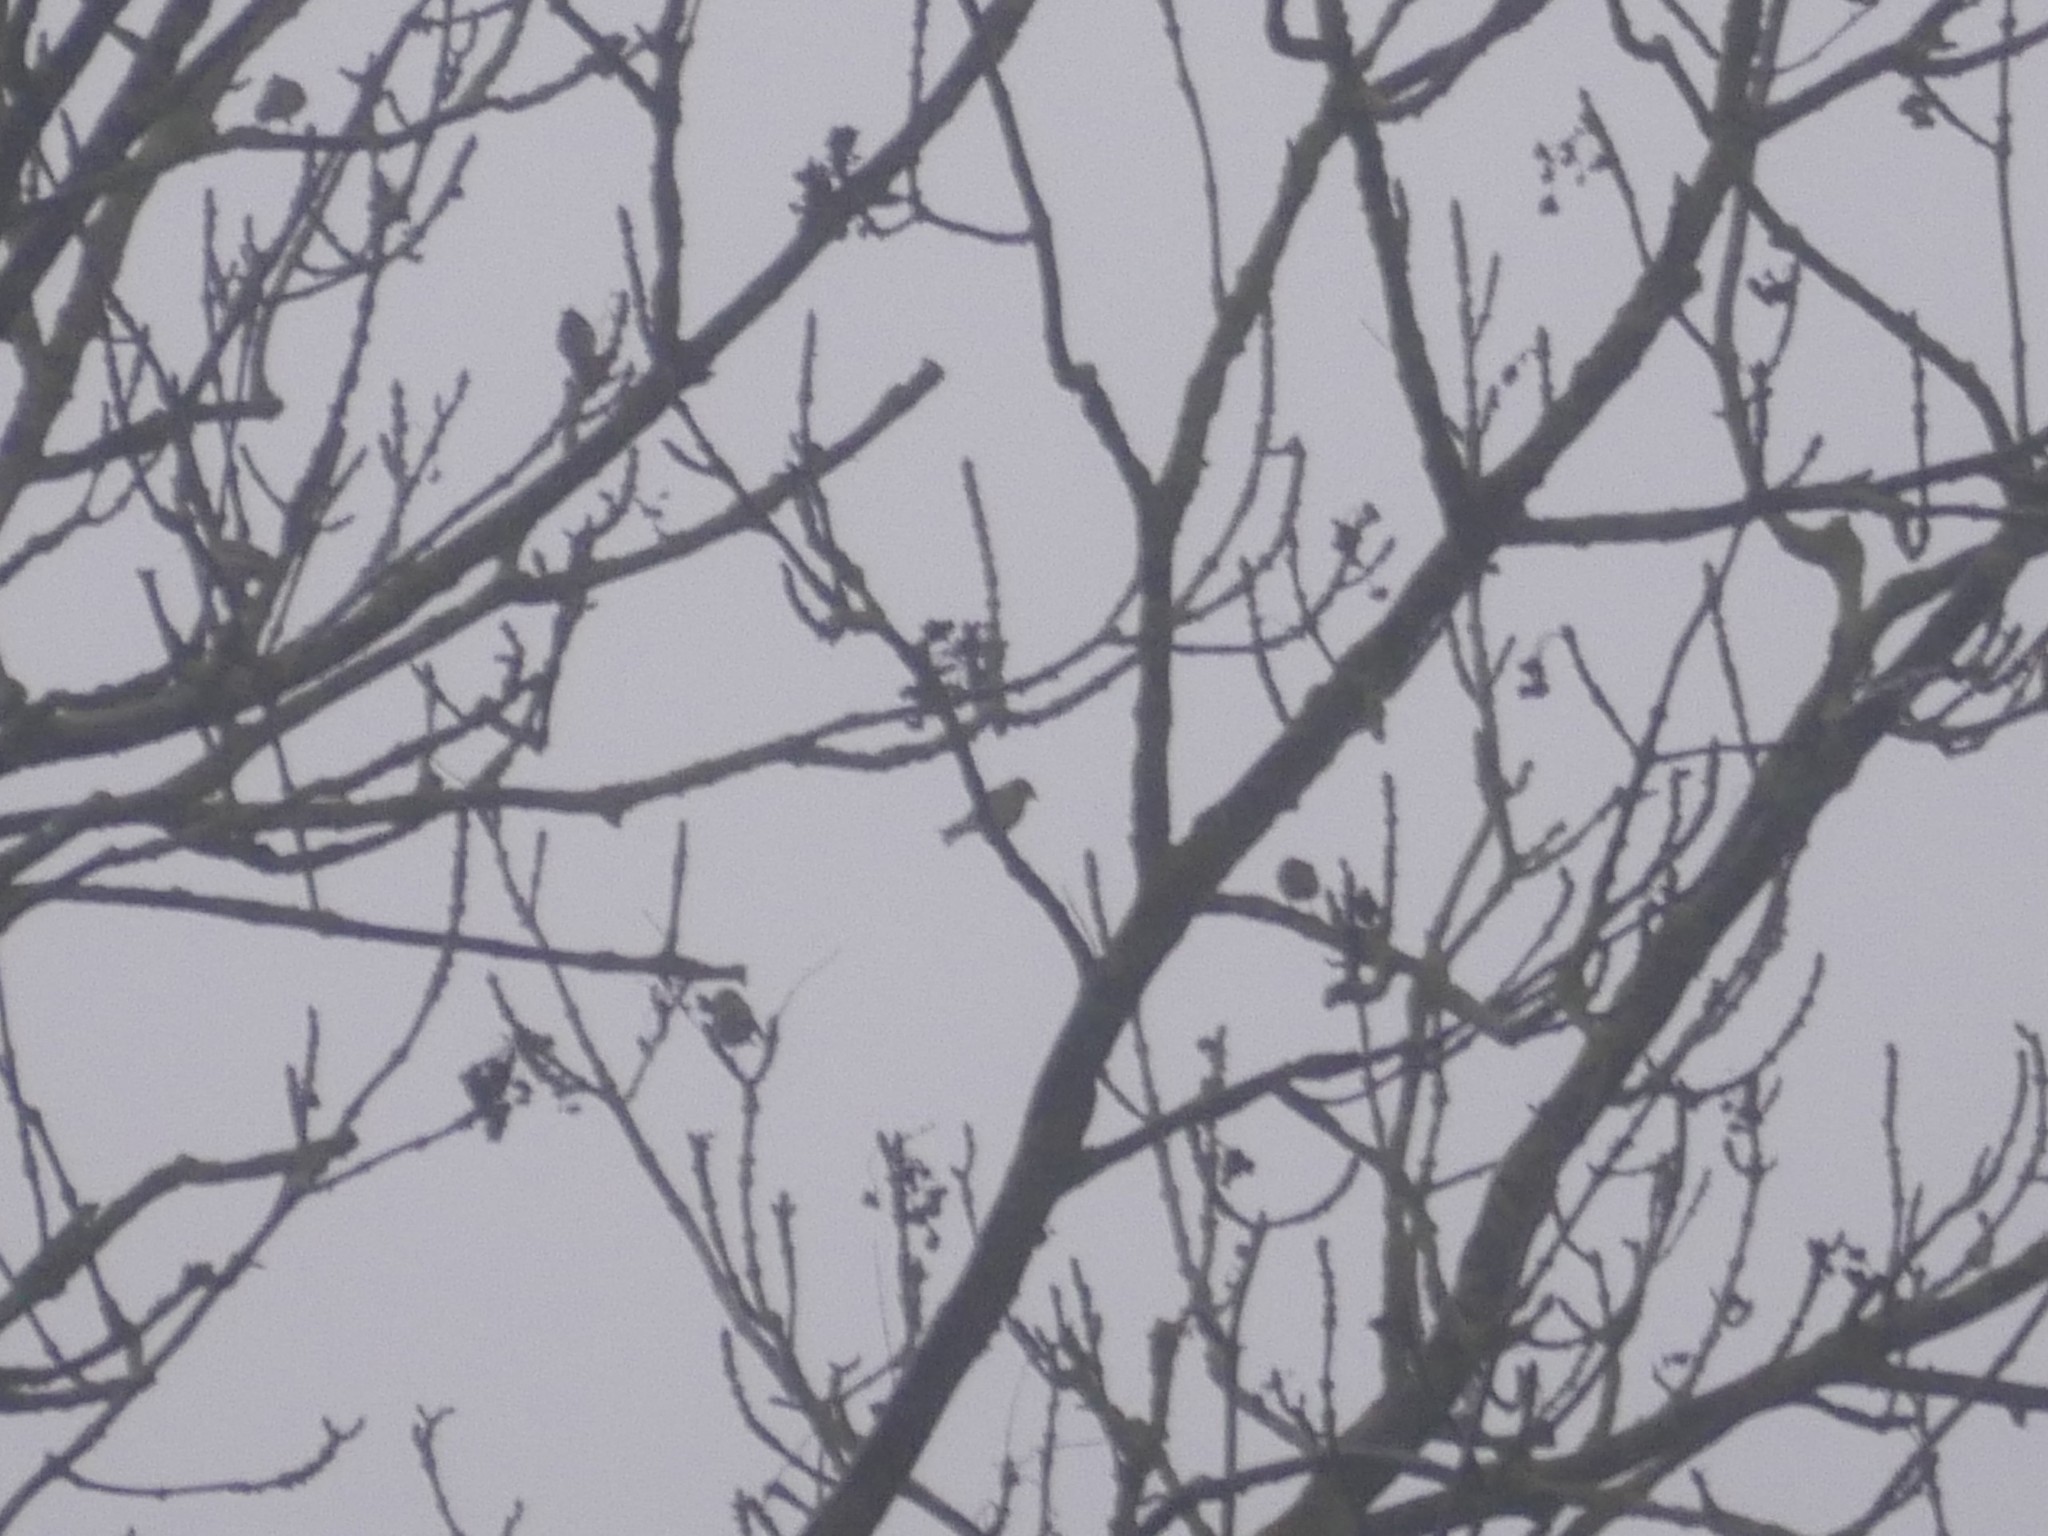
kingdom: Animalia
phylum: Chordata
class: Aves
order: Passeriformes
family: Fringillidae
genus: Spinus
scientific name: Spinus spinus
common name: Eurasian siskin
